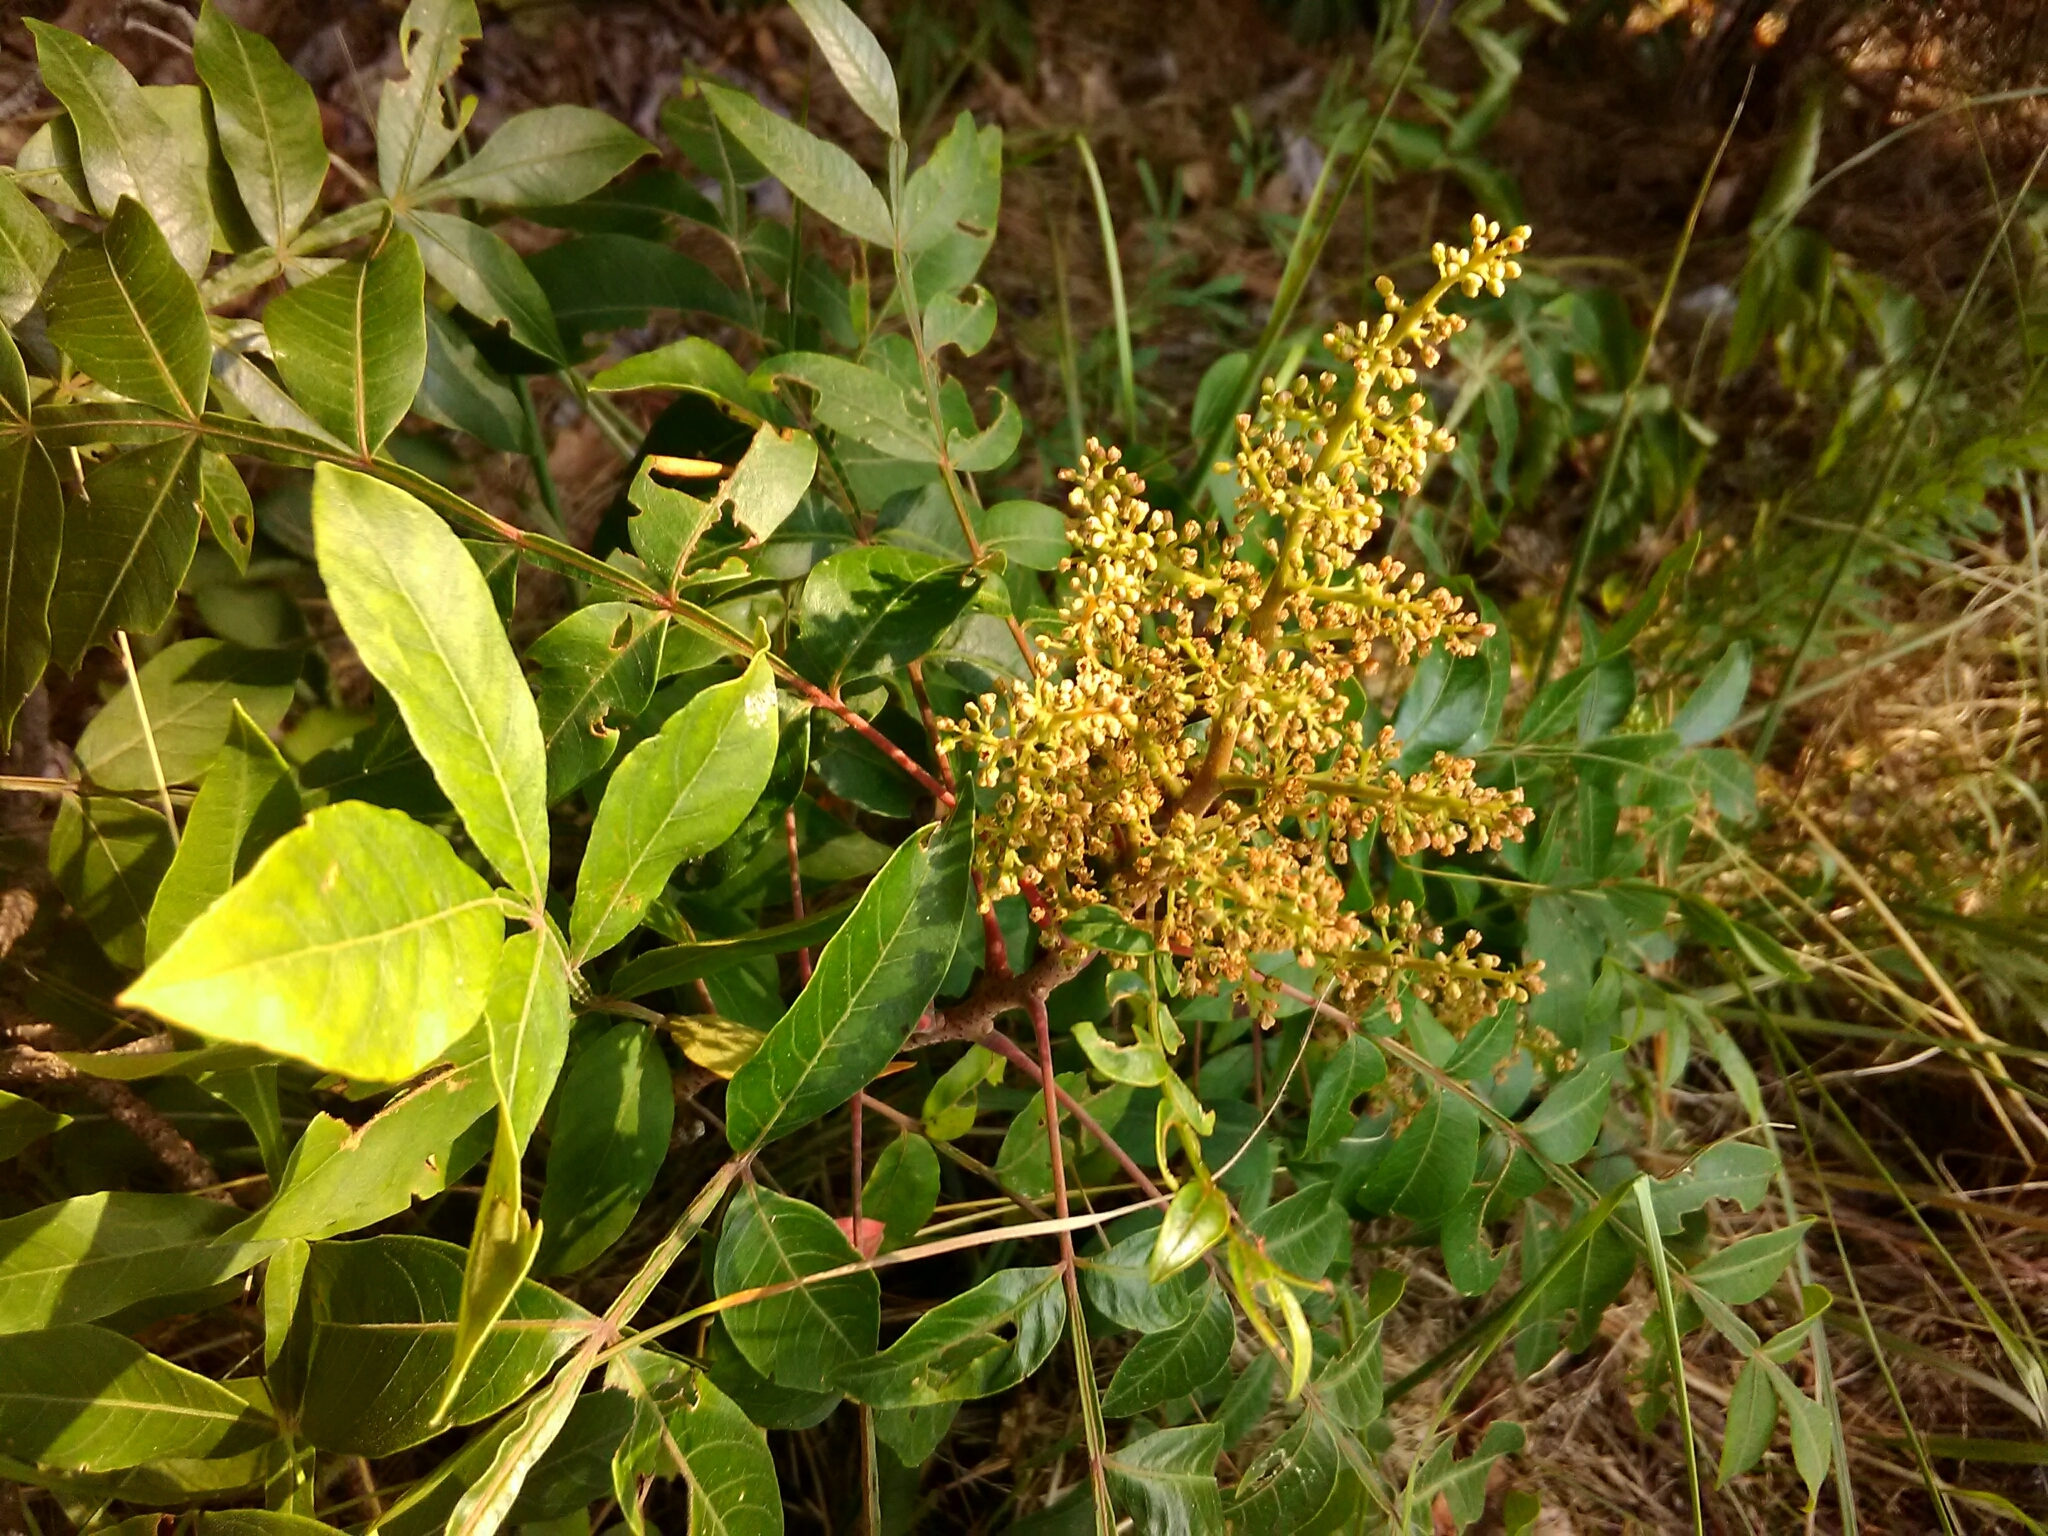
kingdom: Plantae
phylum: Tracheophyta
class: Magnoliopsida
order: Sapindales
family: Anacardiaceae
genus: Rhus
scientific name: Rhus copallina
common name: Shining sumac
